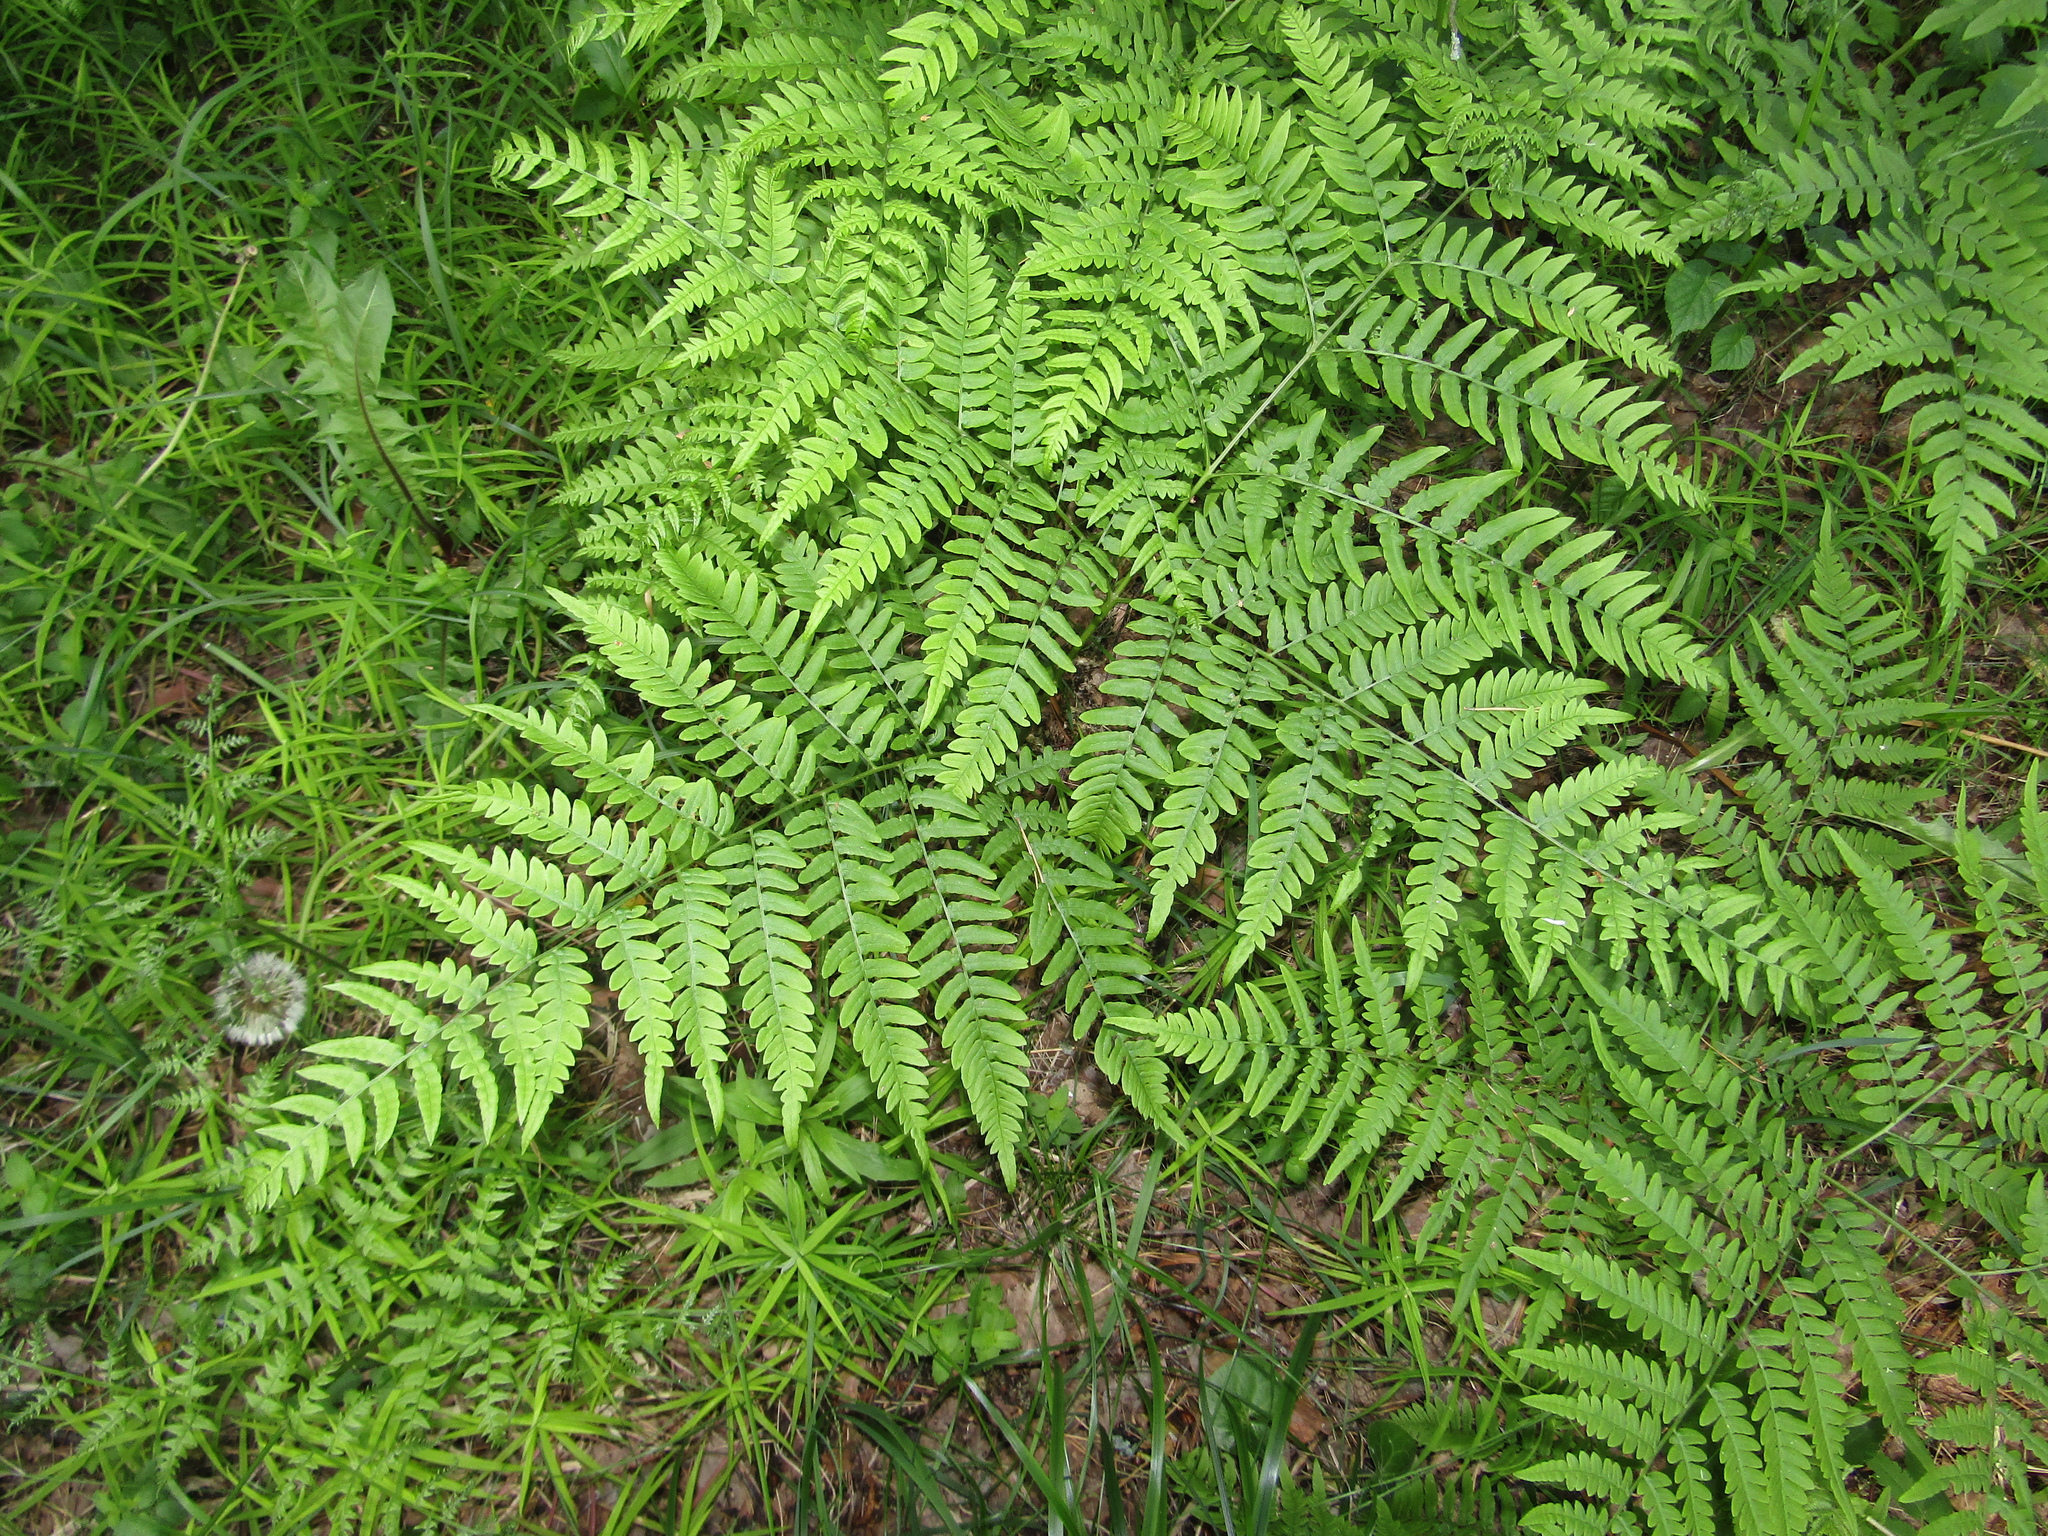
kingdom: Plantae
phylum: Tracheophyta
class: Polypodiopsida
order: Polypodiales
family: Dennstaedtiaceae
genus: Pteridium
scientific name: Pteridium aquilinum
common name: Bracken
